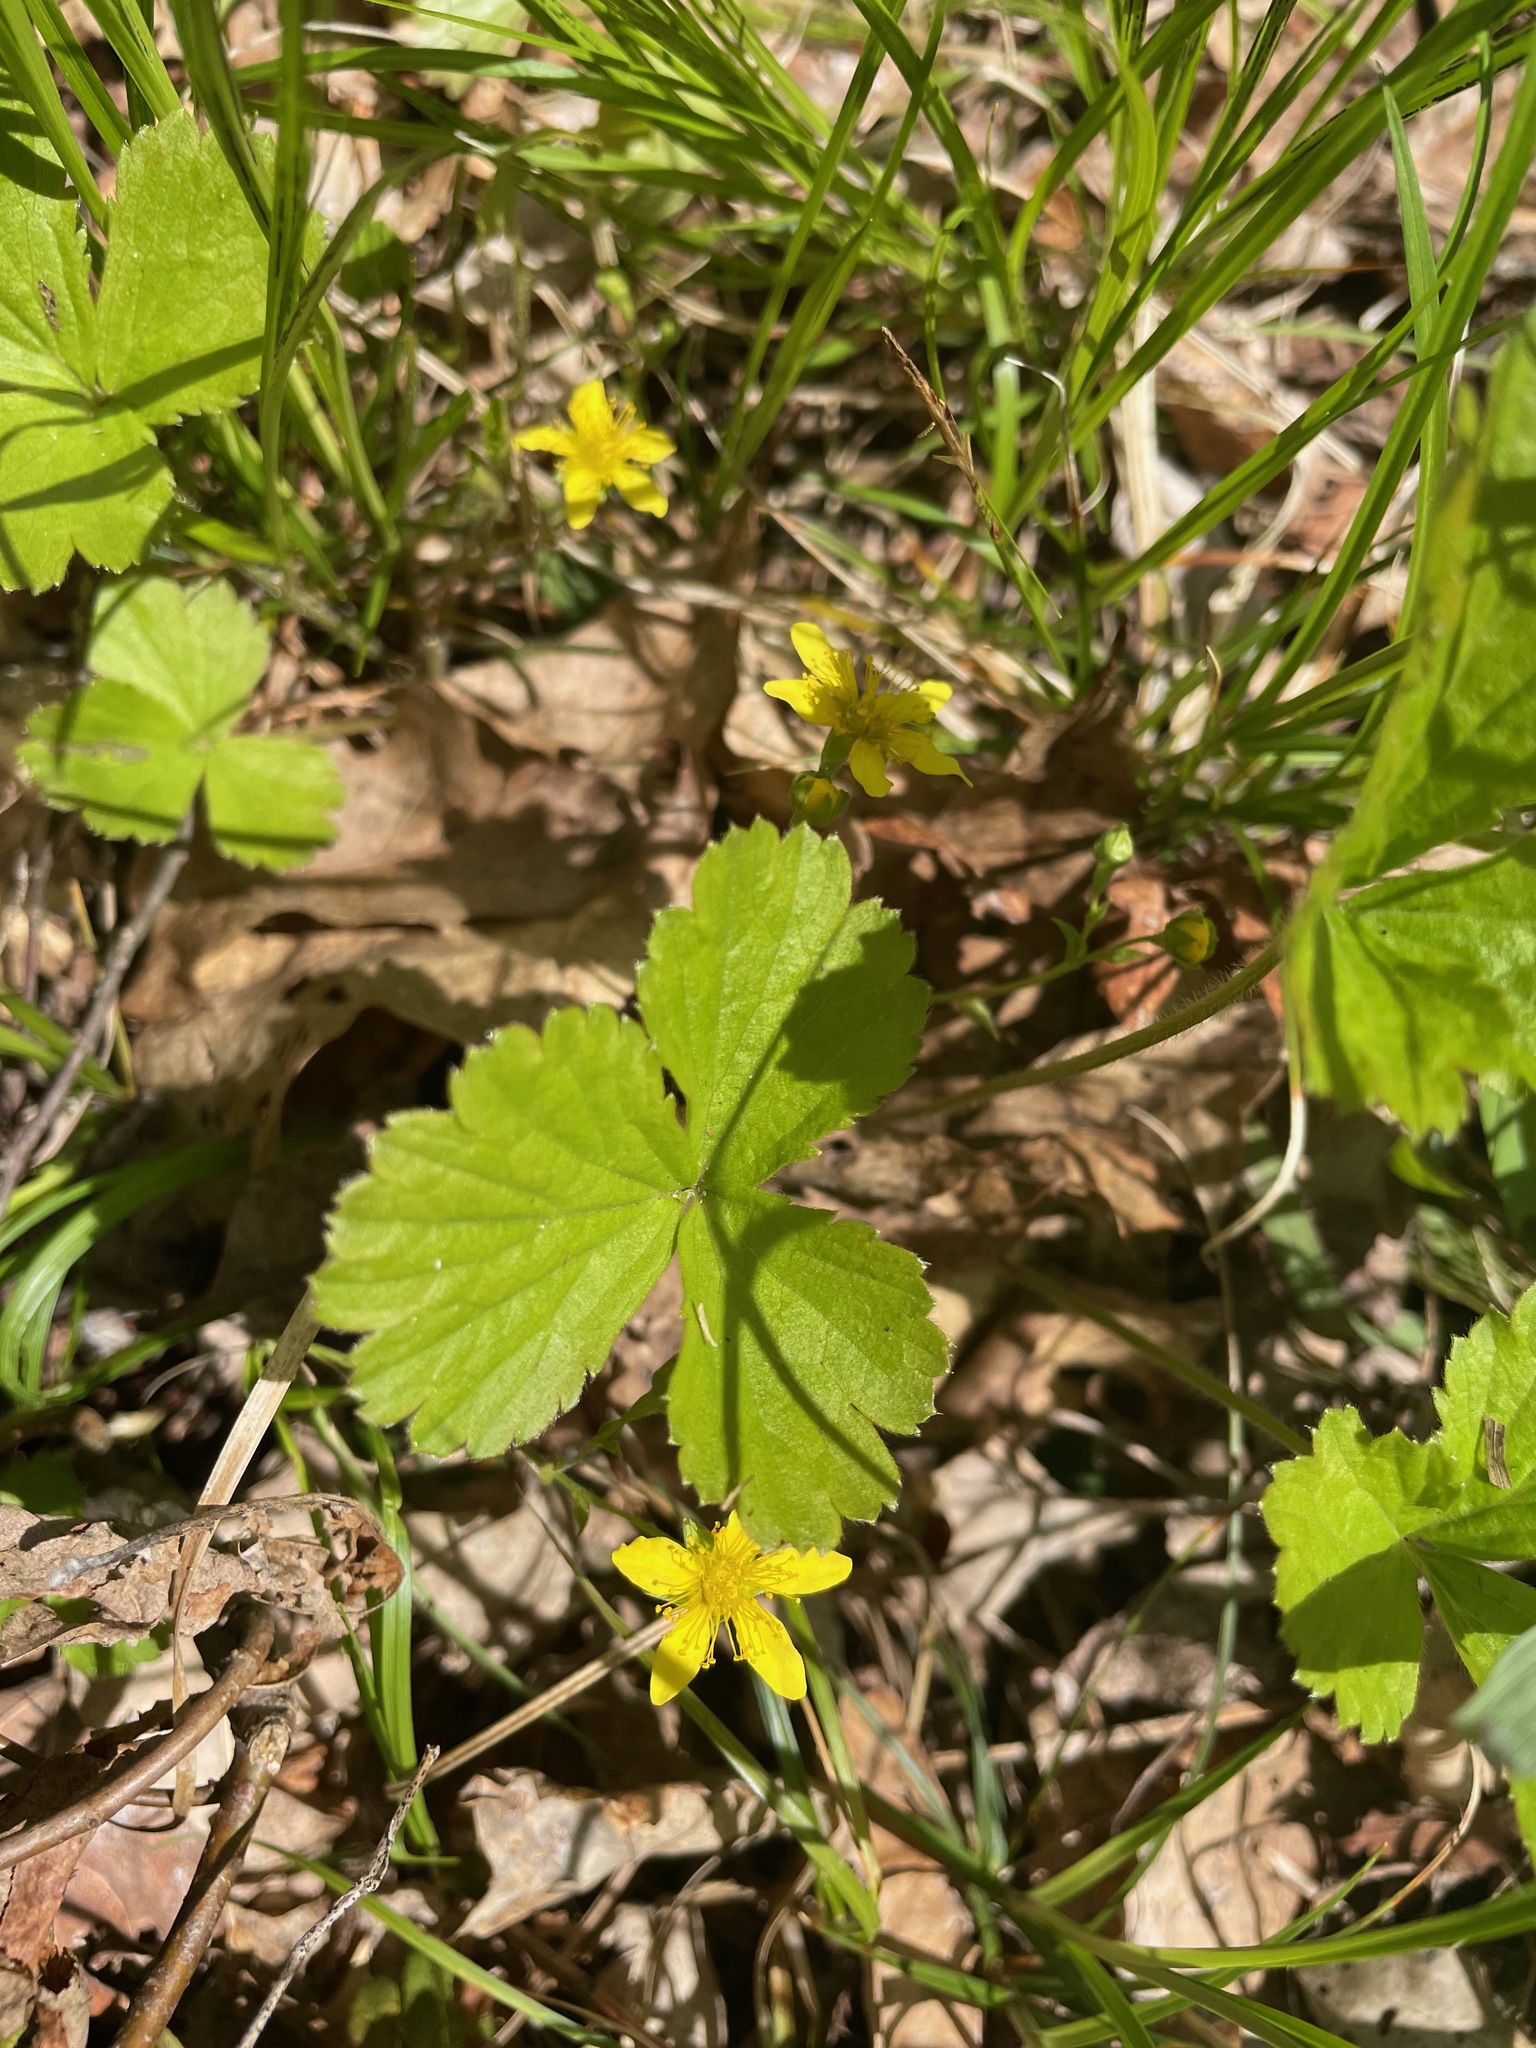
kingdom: Plantae
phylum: Tracheophyta
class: Magnoliopsida
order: Rosales
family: Rosaceae
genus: Geum
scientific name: Geum fragarioides
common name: Appalachian barren strawberry
